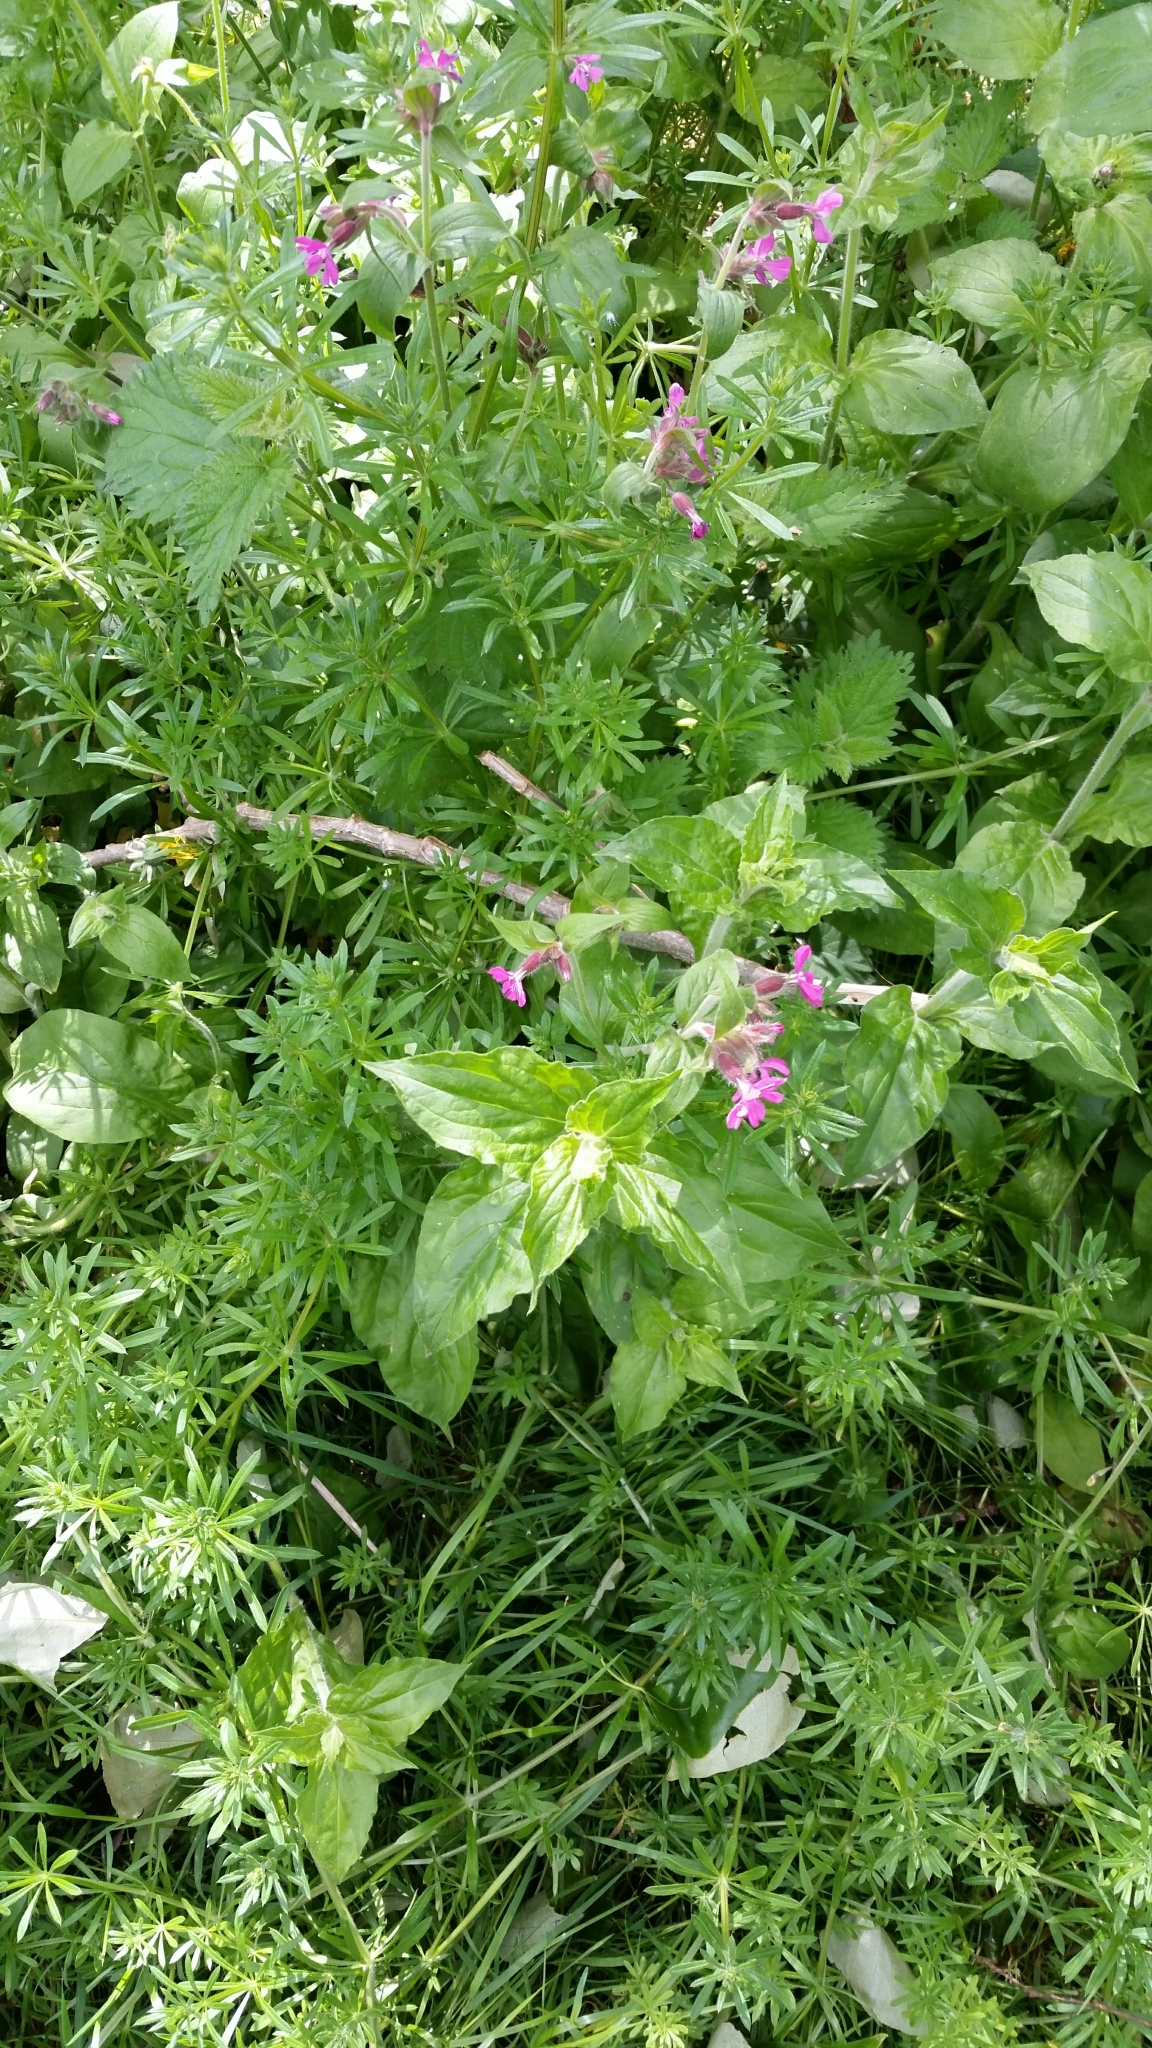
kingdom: Plantae
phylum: Tracheophyta
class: Magnoliopsida
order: Caryophyllales
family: Caryophyllaceae
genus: Silene
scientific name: Silene dioica
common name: Red campion
